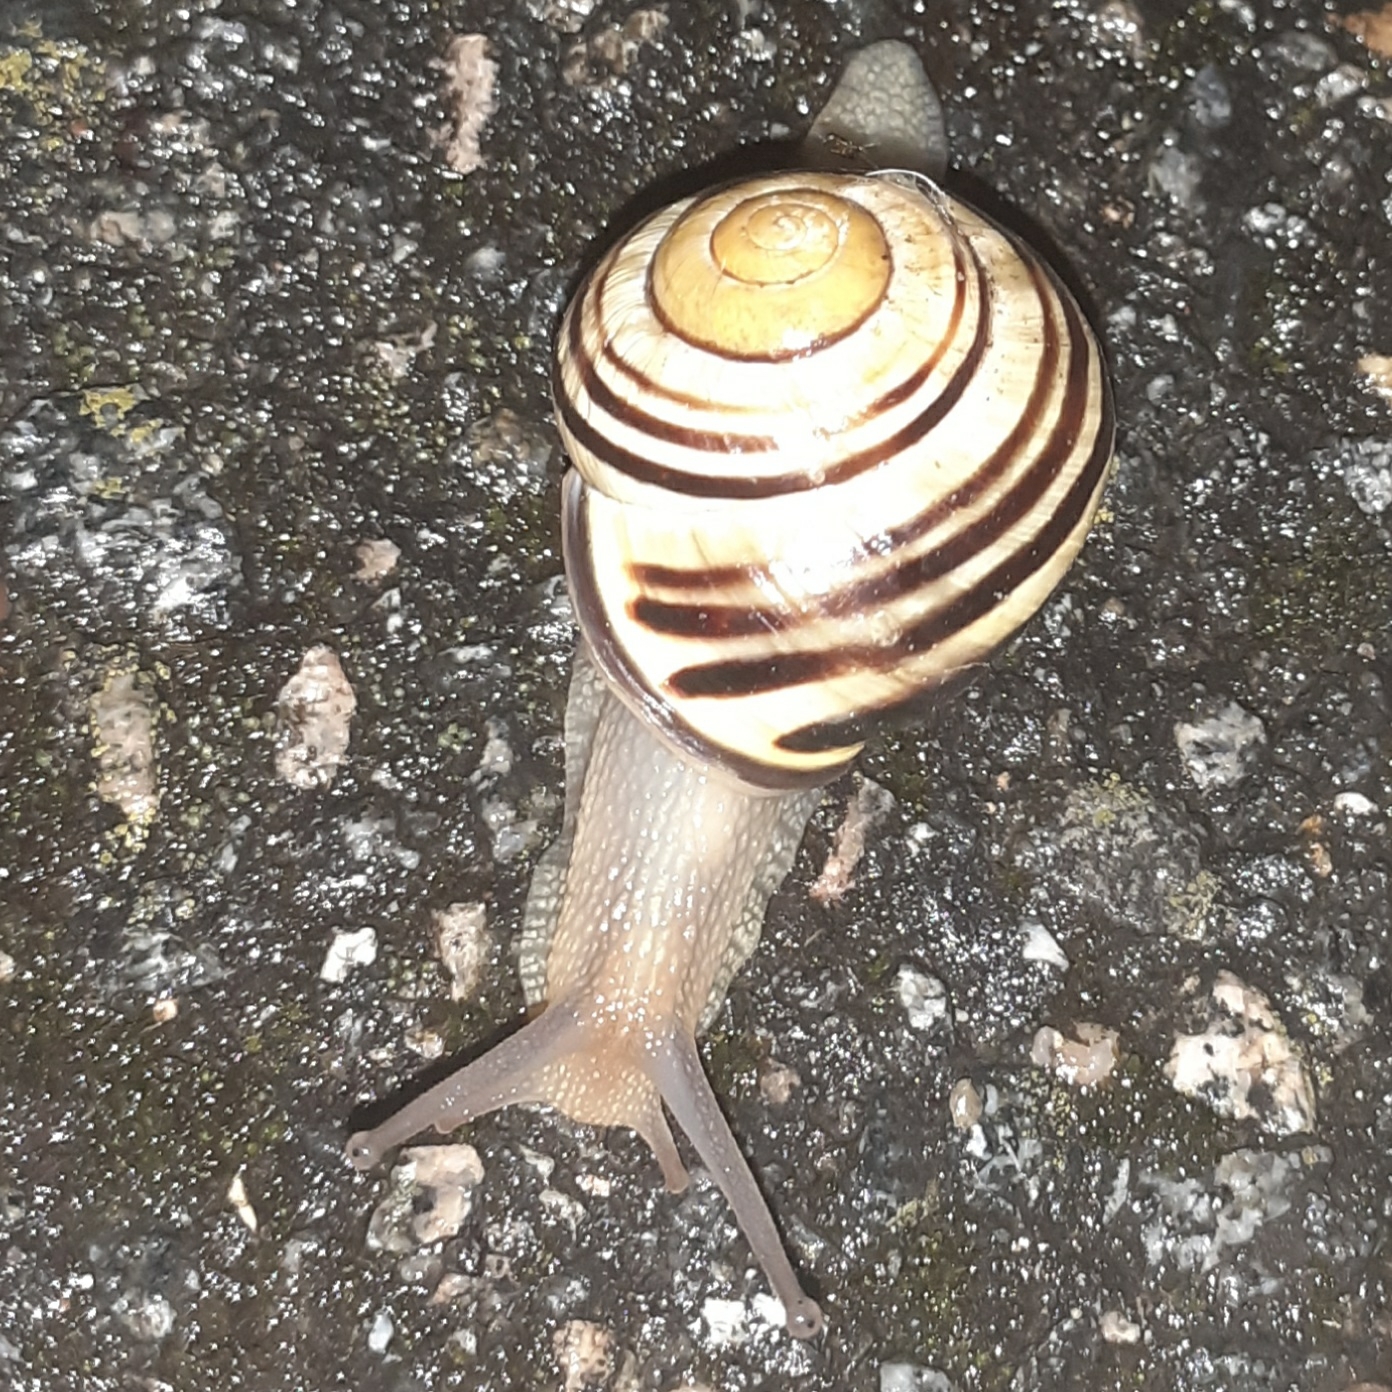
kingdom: Animalia
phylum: Mollusca
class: Gastropoda
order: Stylommatophora
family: Helicidae
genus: Cepaea
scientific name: Cepaea nemoralis
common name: Grovesnail
